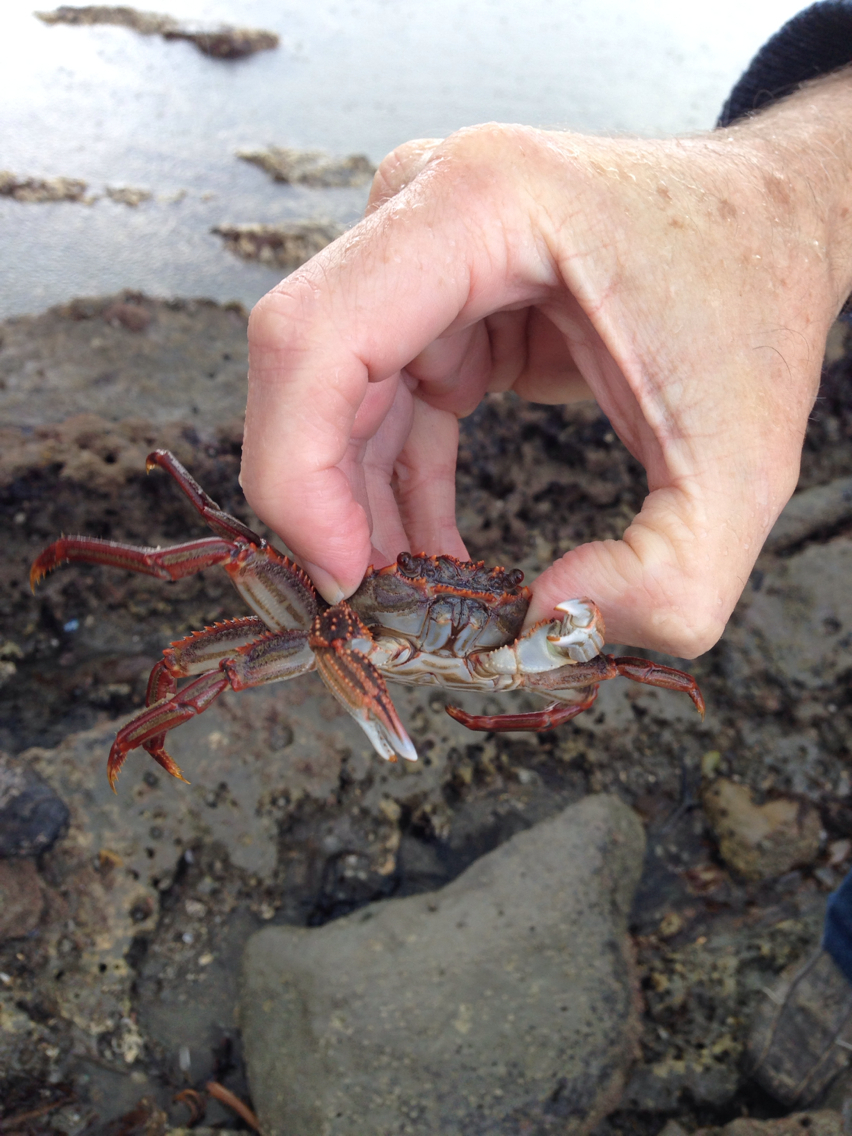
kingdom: Animalia
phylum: Arthropoda
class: Malacostraca
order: Decapoda
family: Plagusiidae
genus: Guinusia
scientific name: Guinusia chabrus
